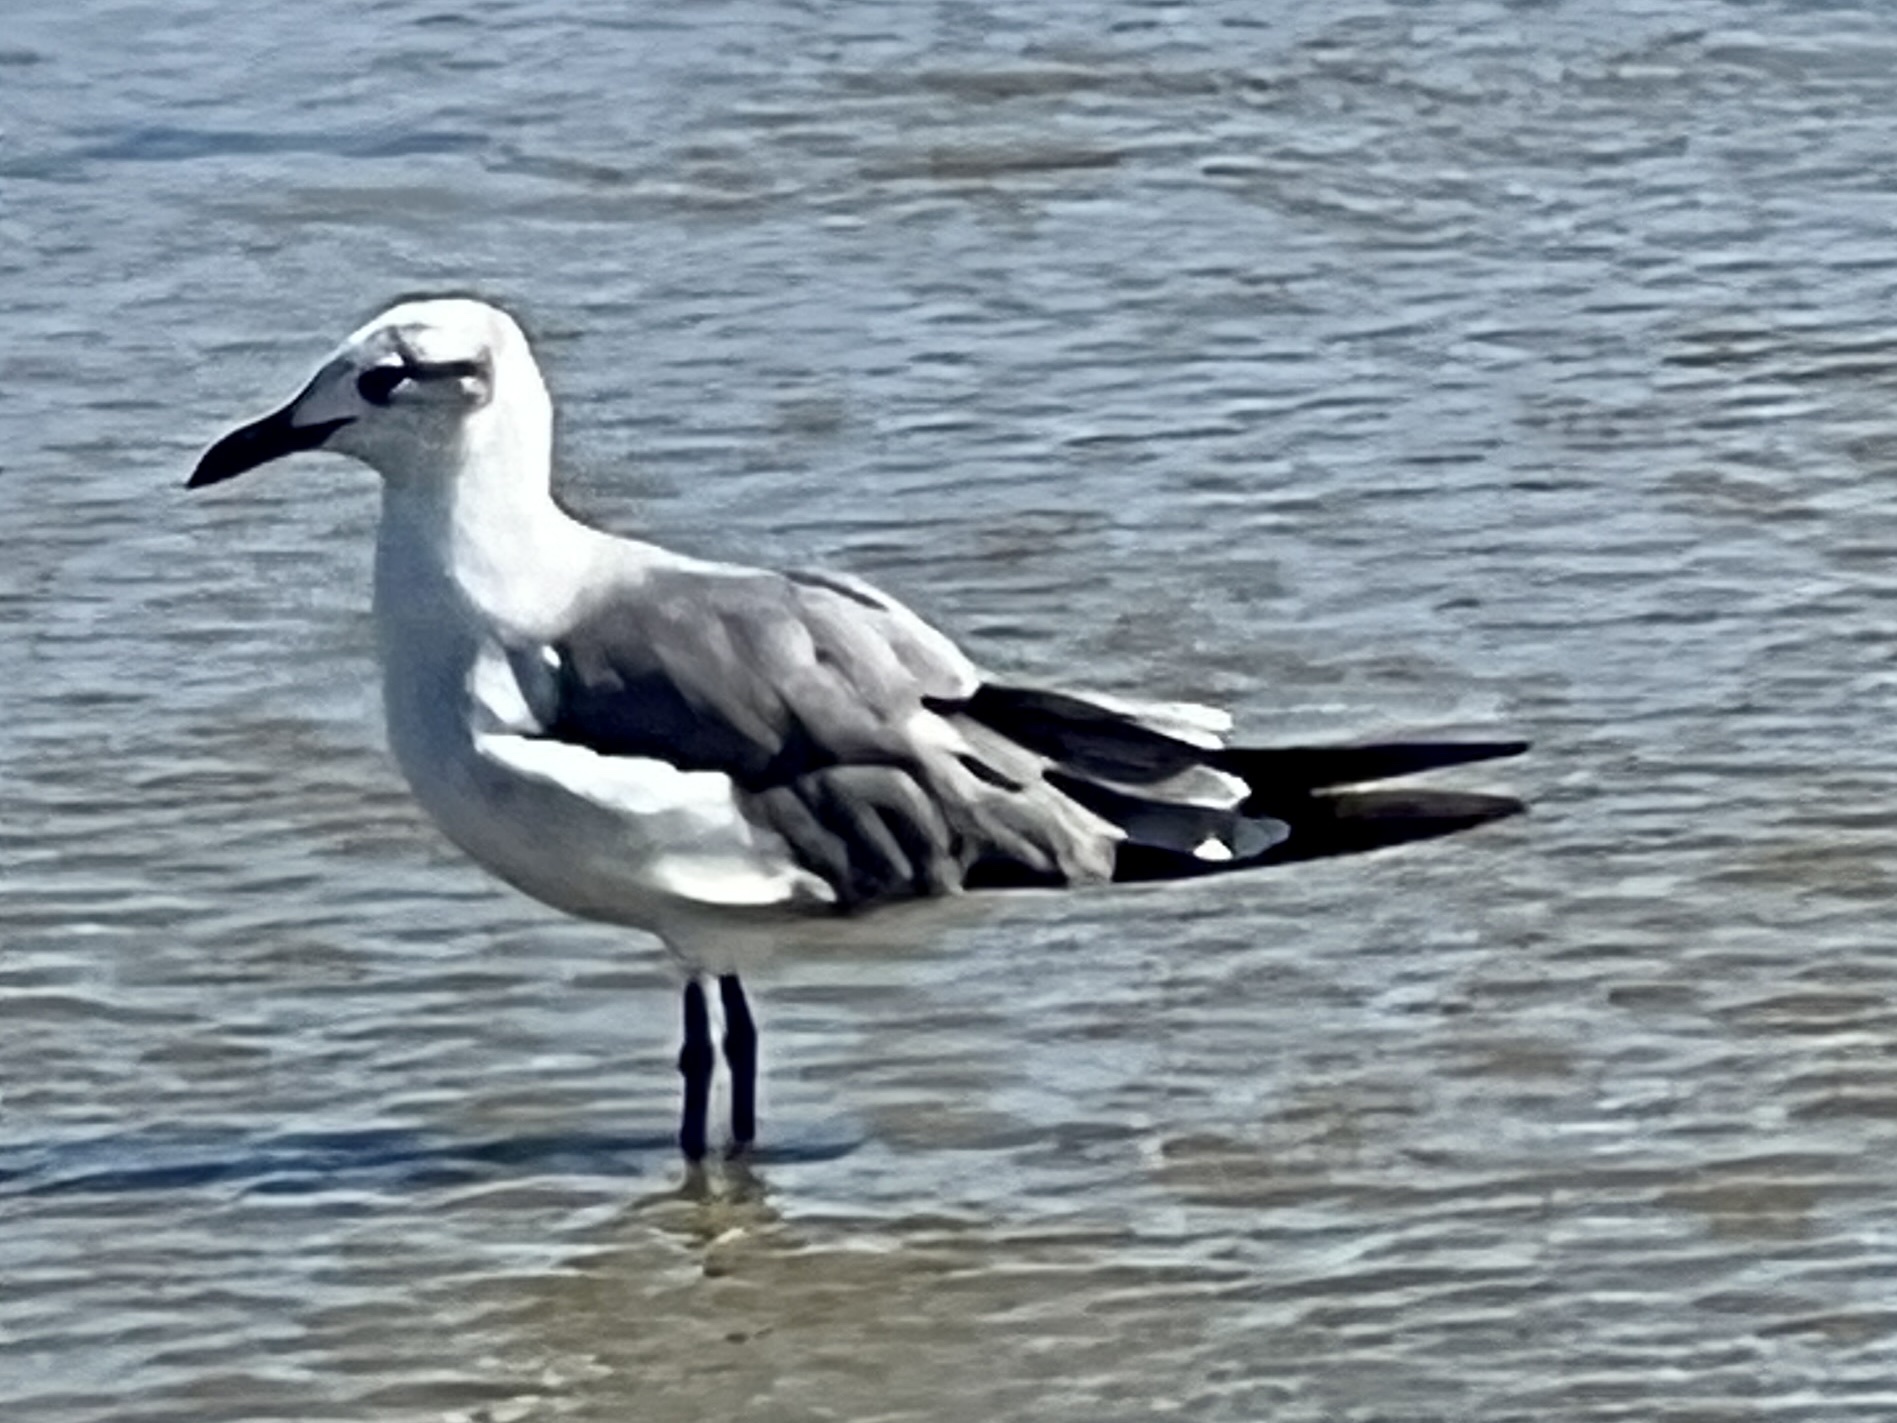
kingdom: Animalia
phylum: Chordata
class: Aves
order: Charadriiformes
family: Laridae
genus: Leucophaeus
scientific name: Leucophaeus atricilla
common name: Laughing gull
